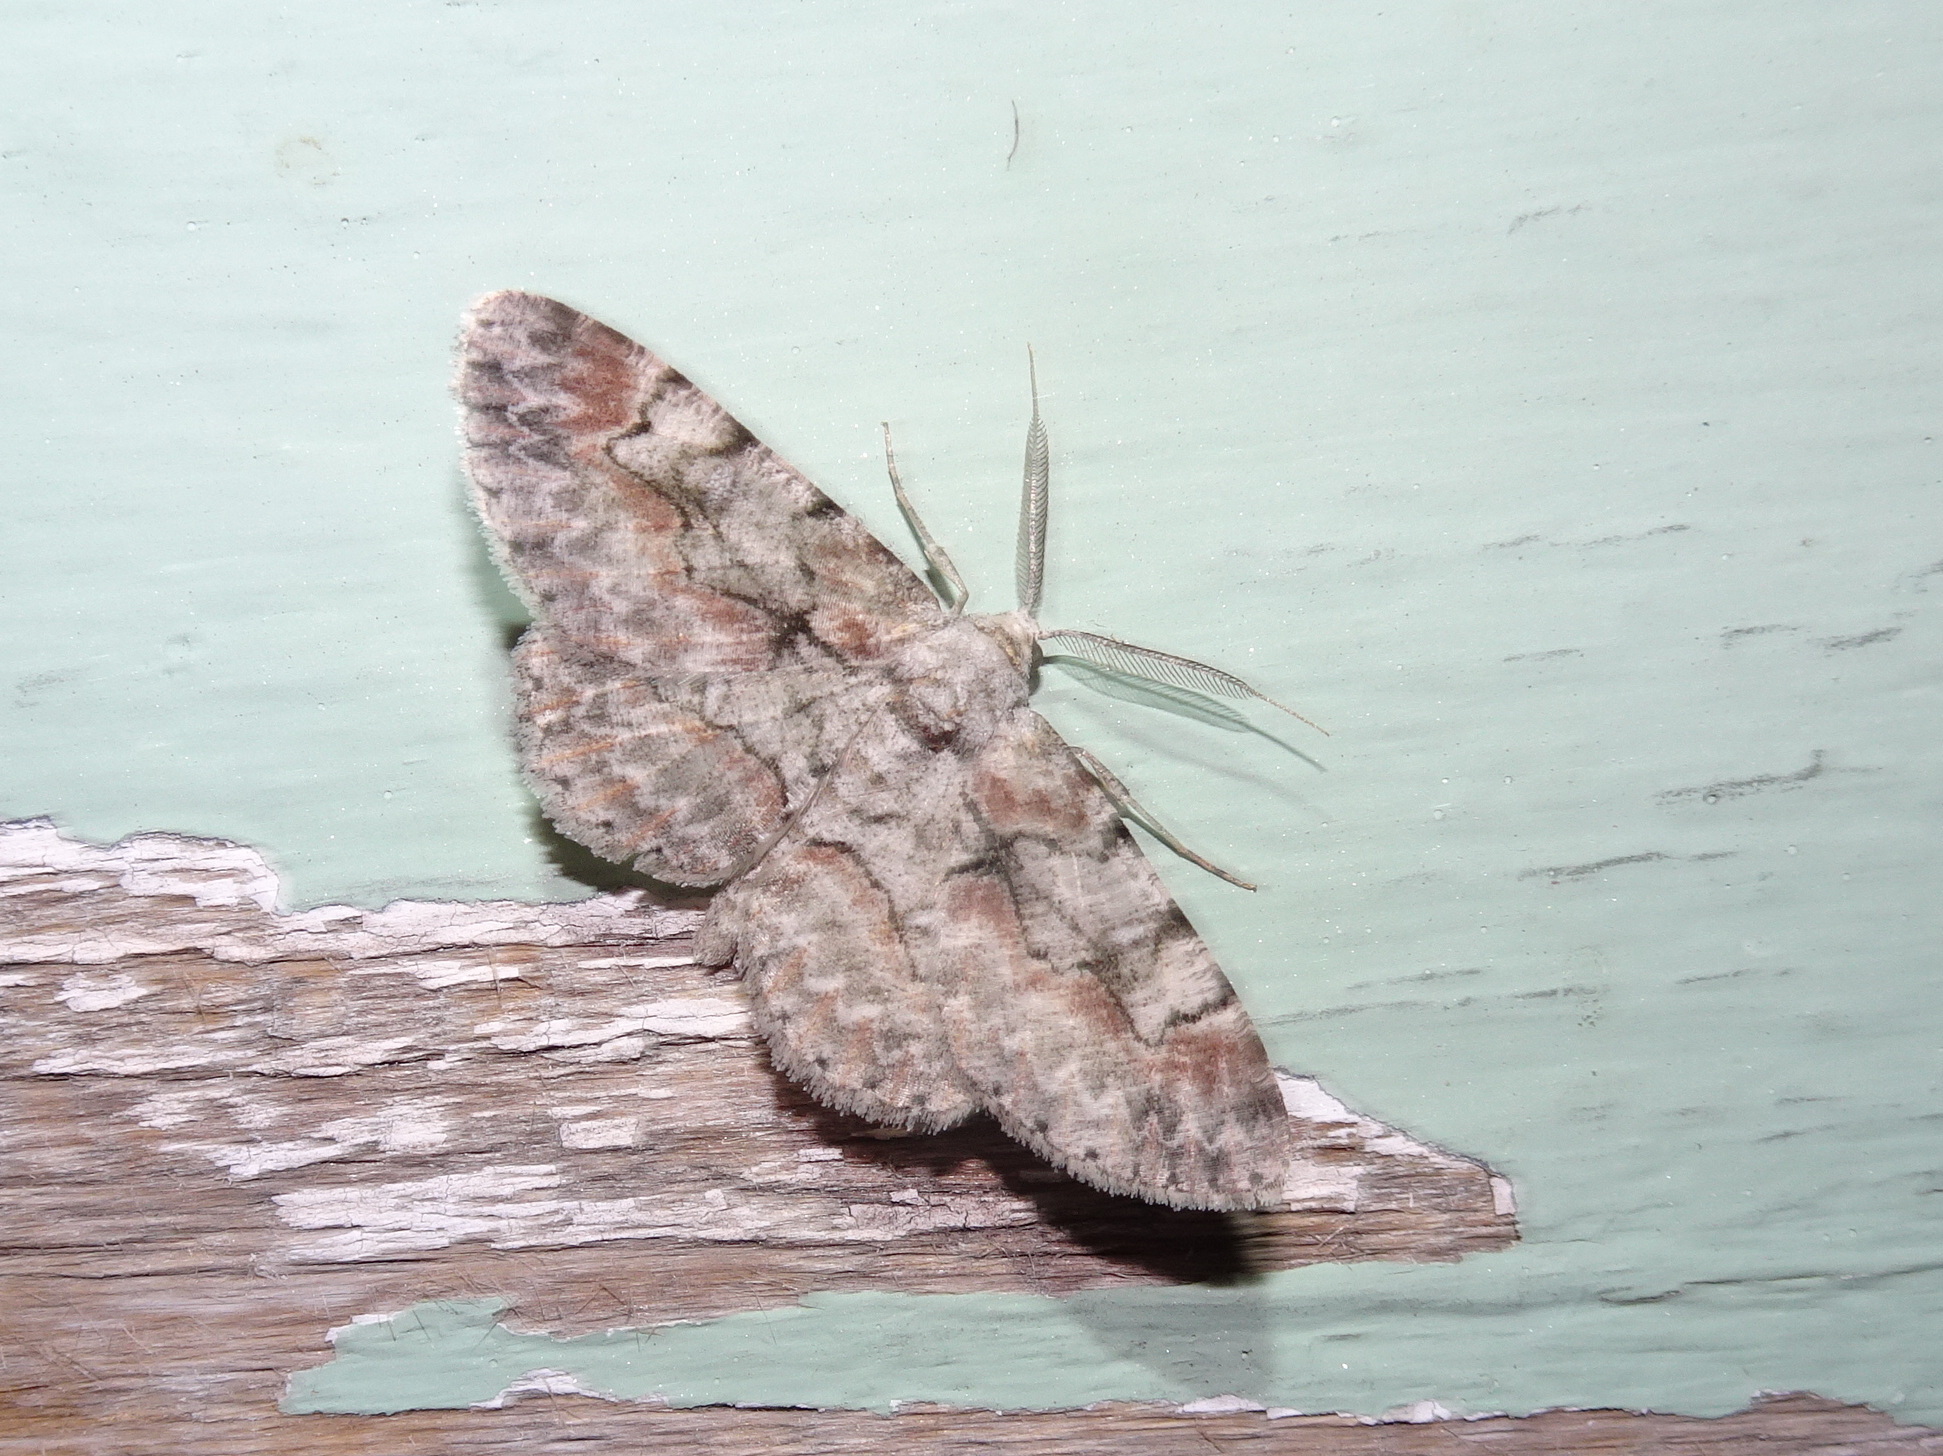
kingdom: Animalia
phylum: Arthropoda
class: Insecta
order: Lepidoptera
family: Geometridae
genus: Iridopsis
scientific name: Iridopsis defectaria
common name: Brown-shaded gray
